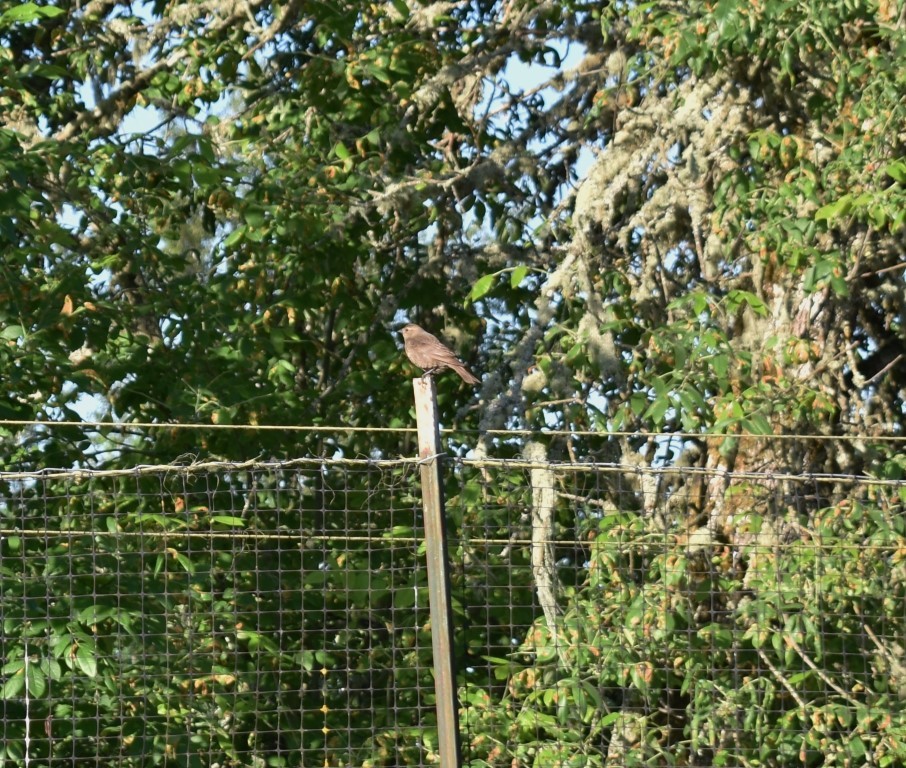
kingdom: Animalia
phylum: Chordata
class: Aves
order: Passeriformes
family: Icteridae
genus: Molothrus
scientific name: Molothrus ater
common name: Brown-headed cowbird
